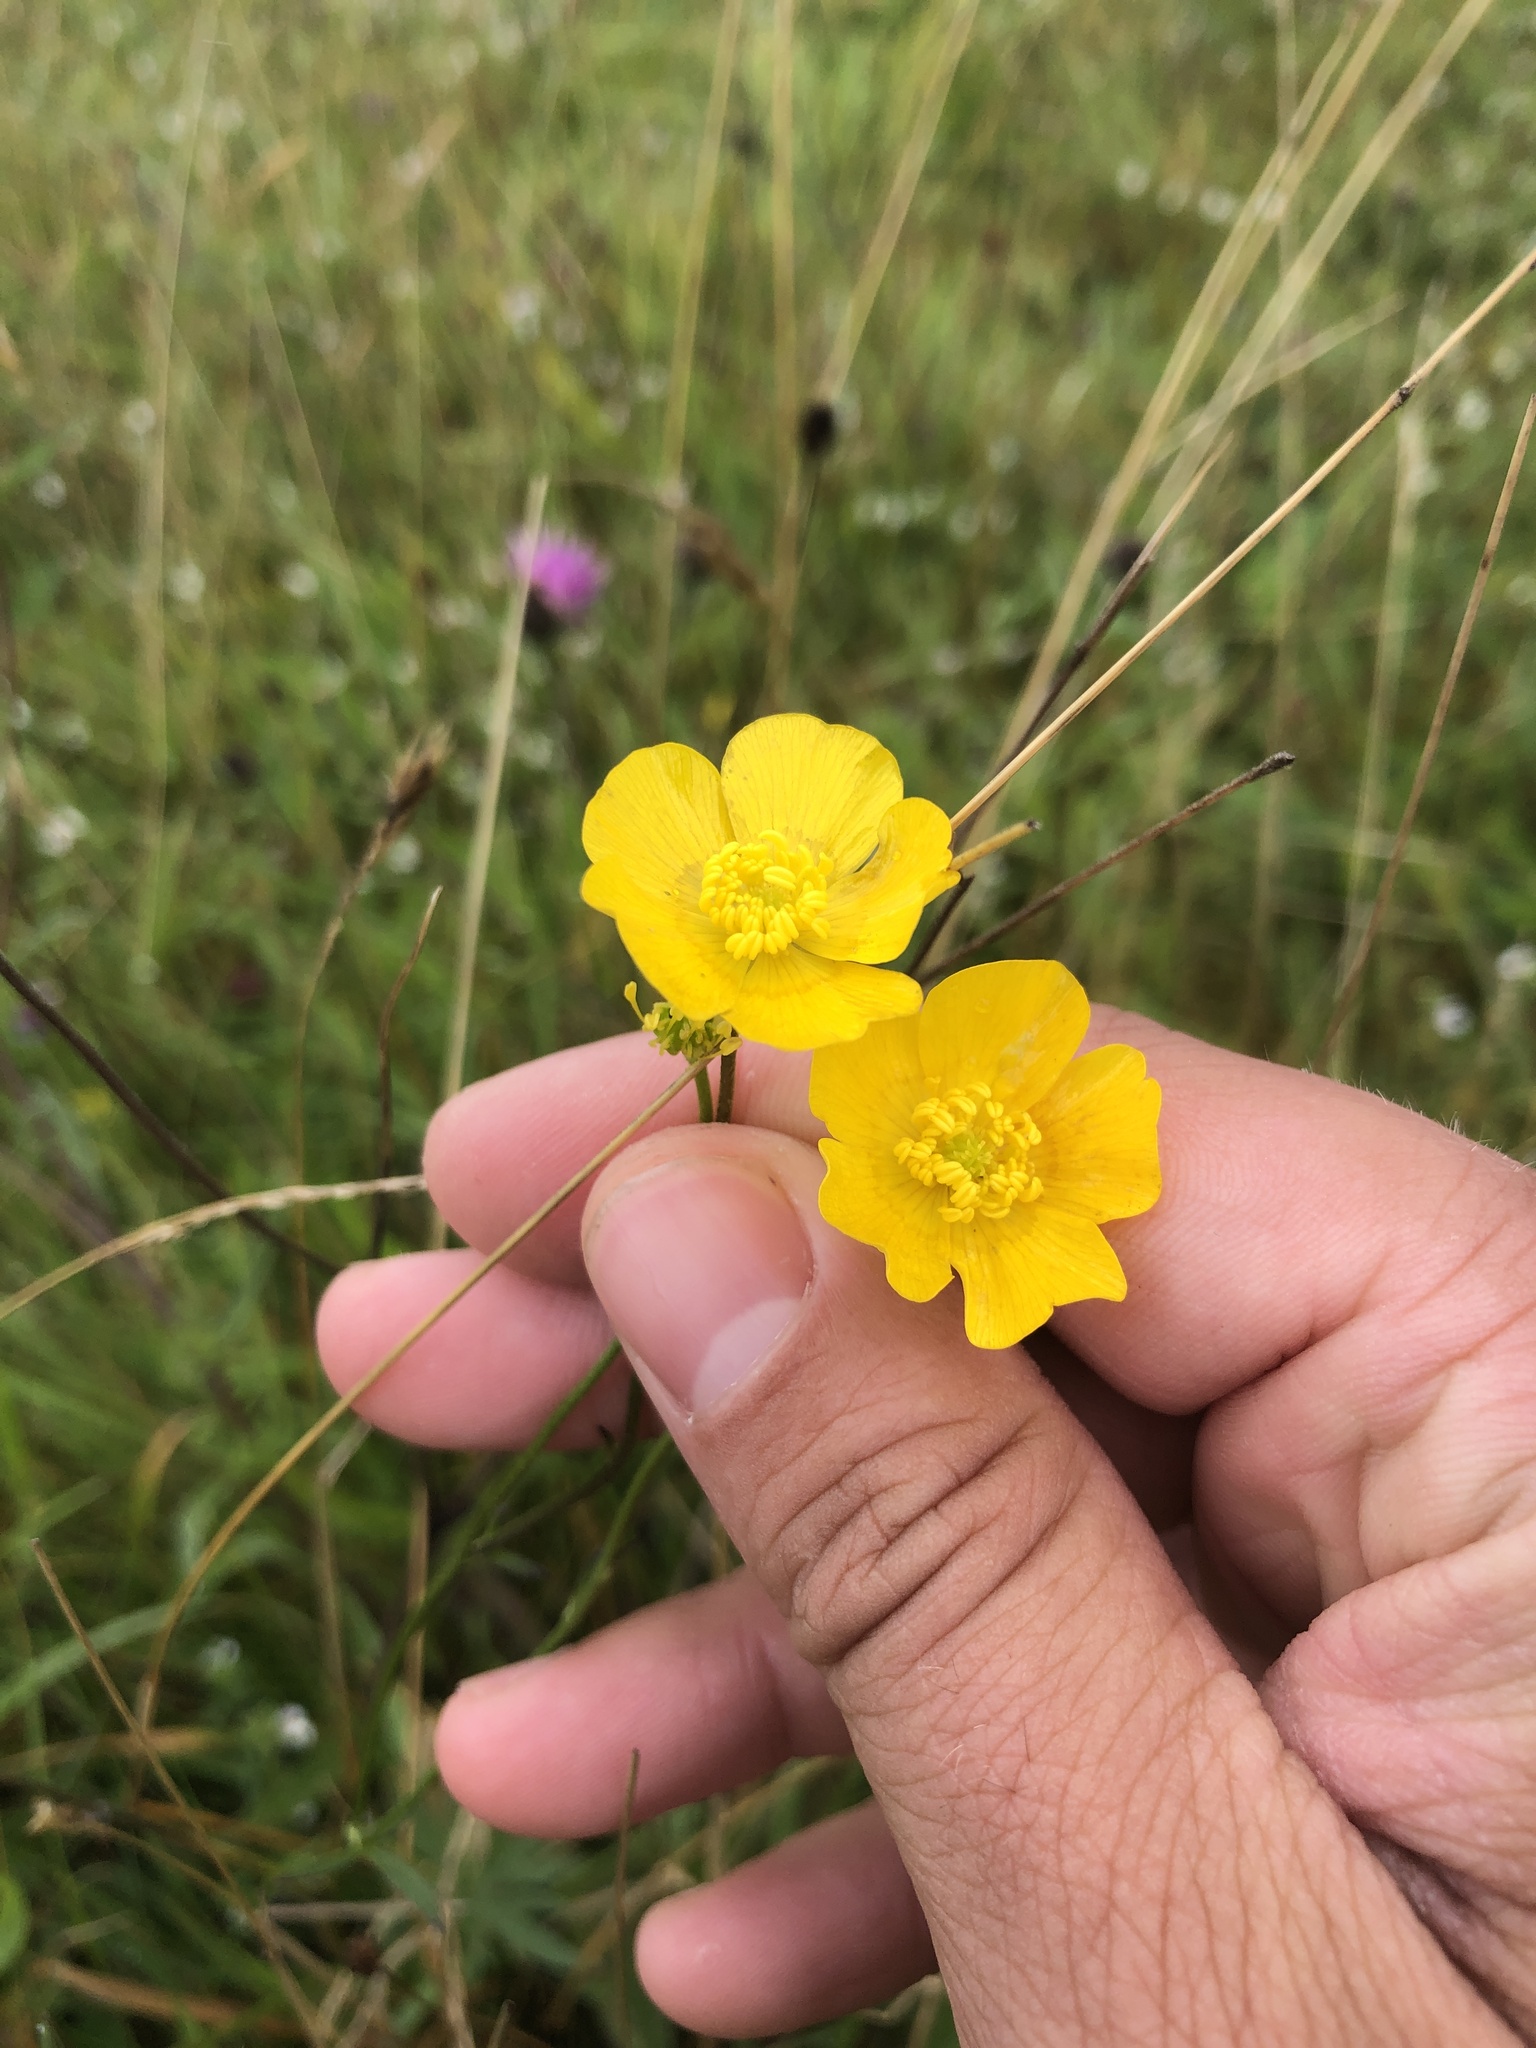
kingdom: Plantae
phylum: Tracheophyta
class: Magnoliopsida
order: Ranunculales
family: Ranunculaceae
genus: Ranunculus
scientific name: Ranunculus acris
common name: Meadow buttercup
